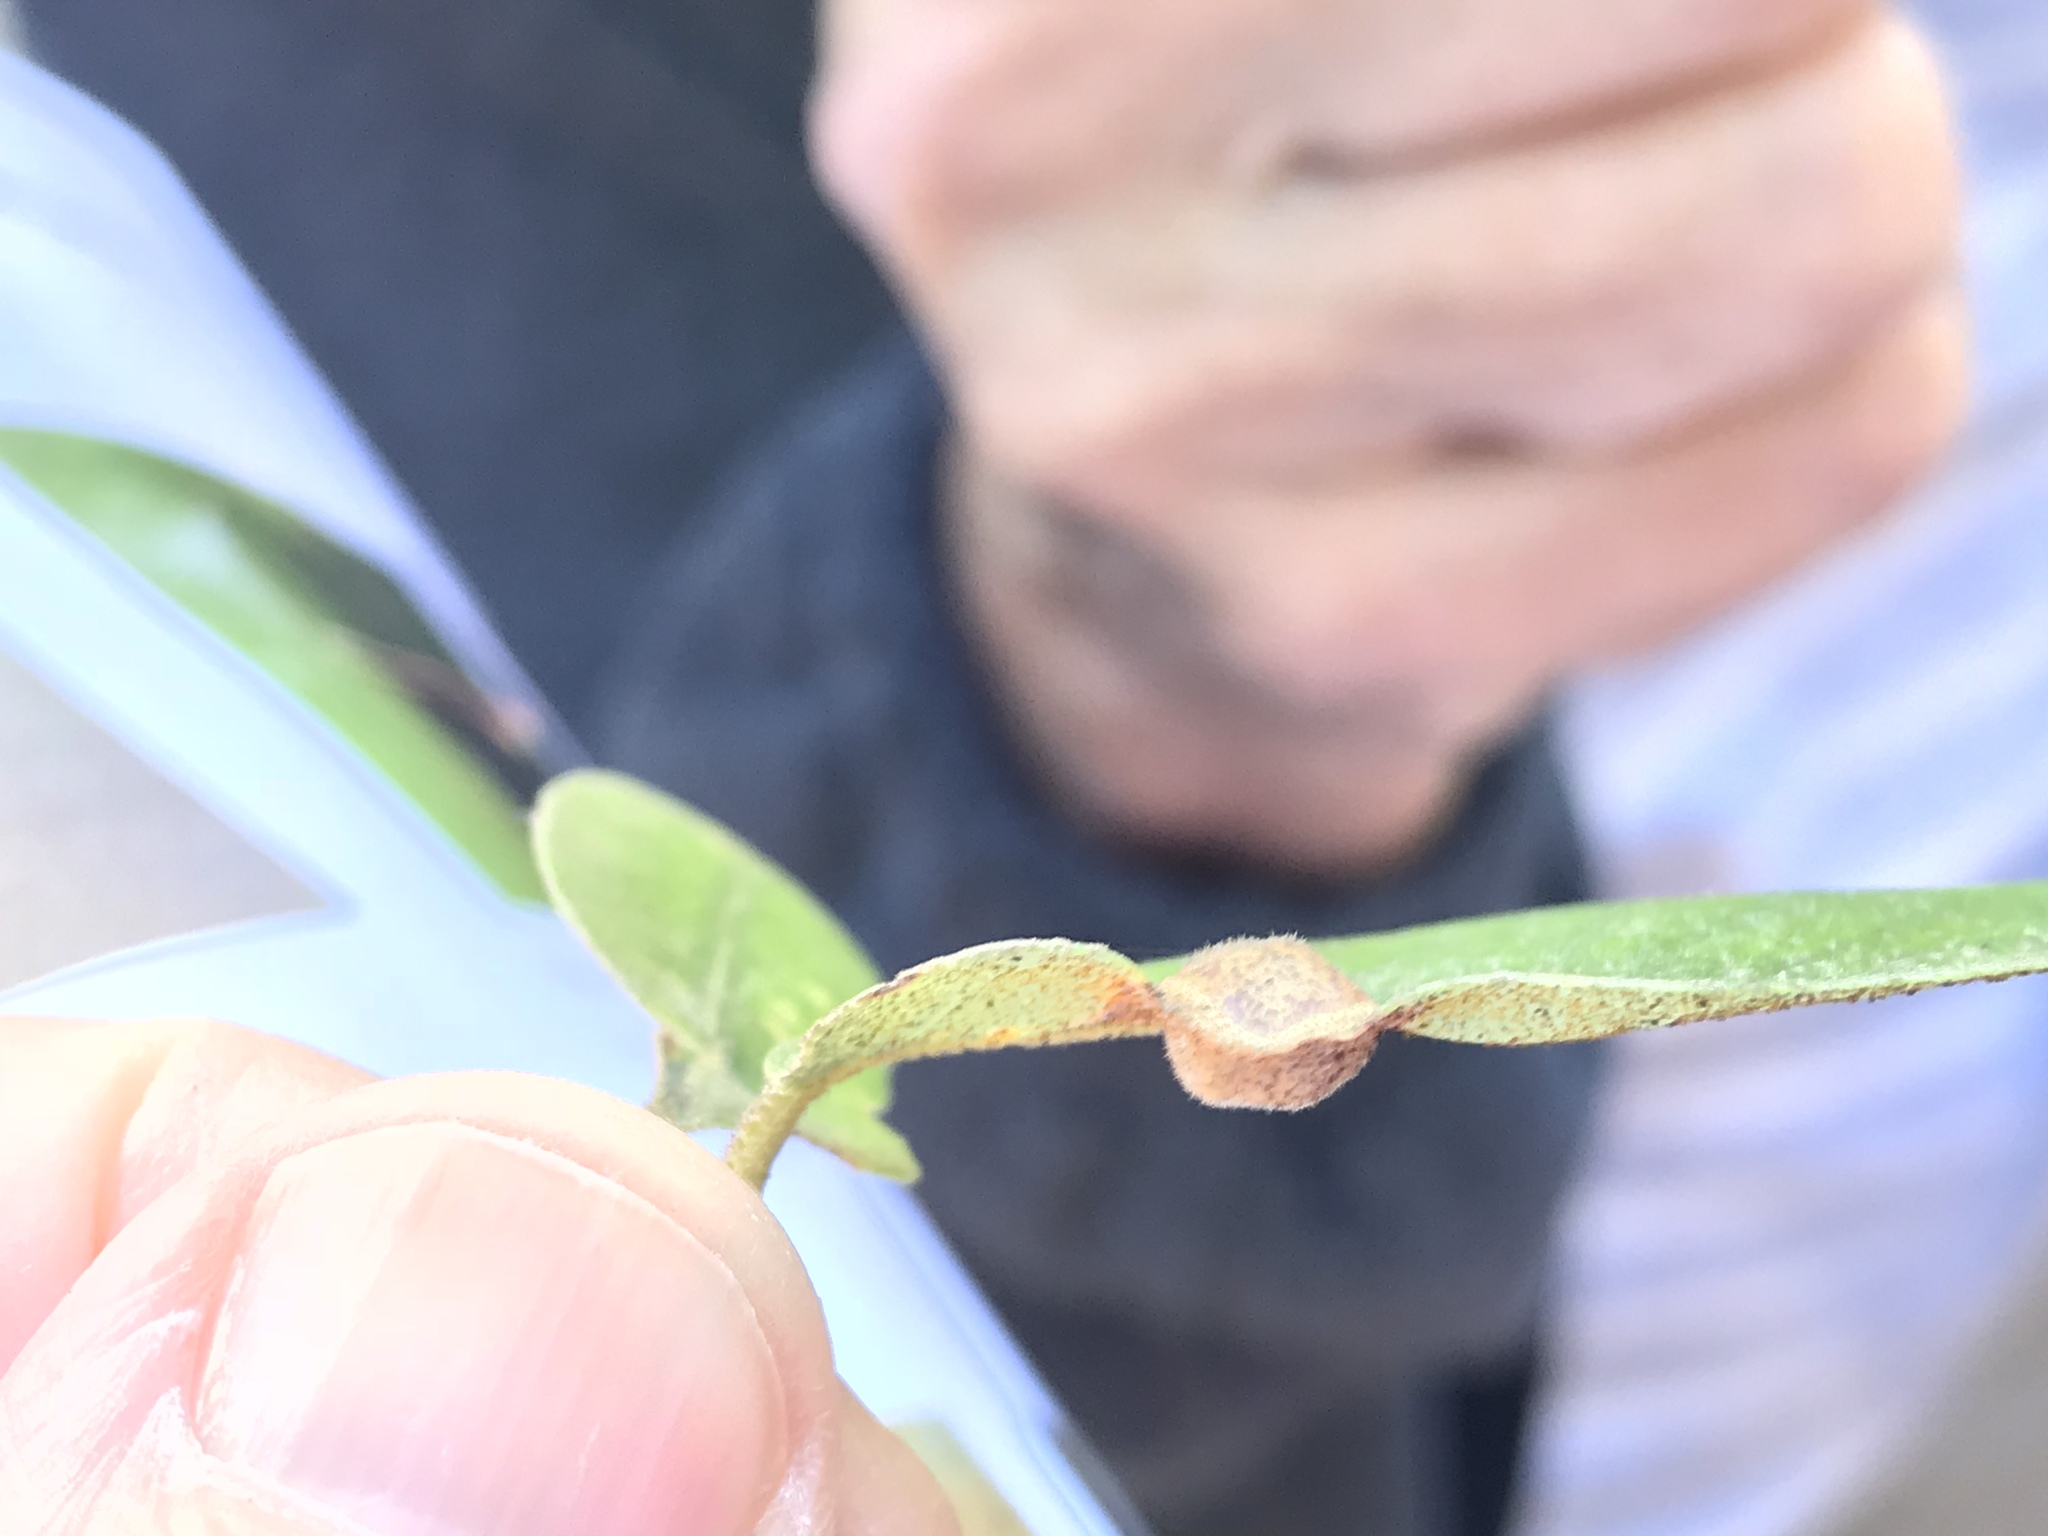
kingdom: Animalia
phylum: Arthropoda
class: Insecta
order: Hymenoptera
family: Cynipidae
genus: Heteroecus
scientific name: Heteroecus
